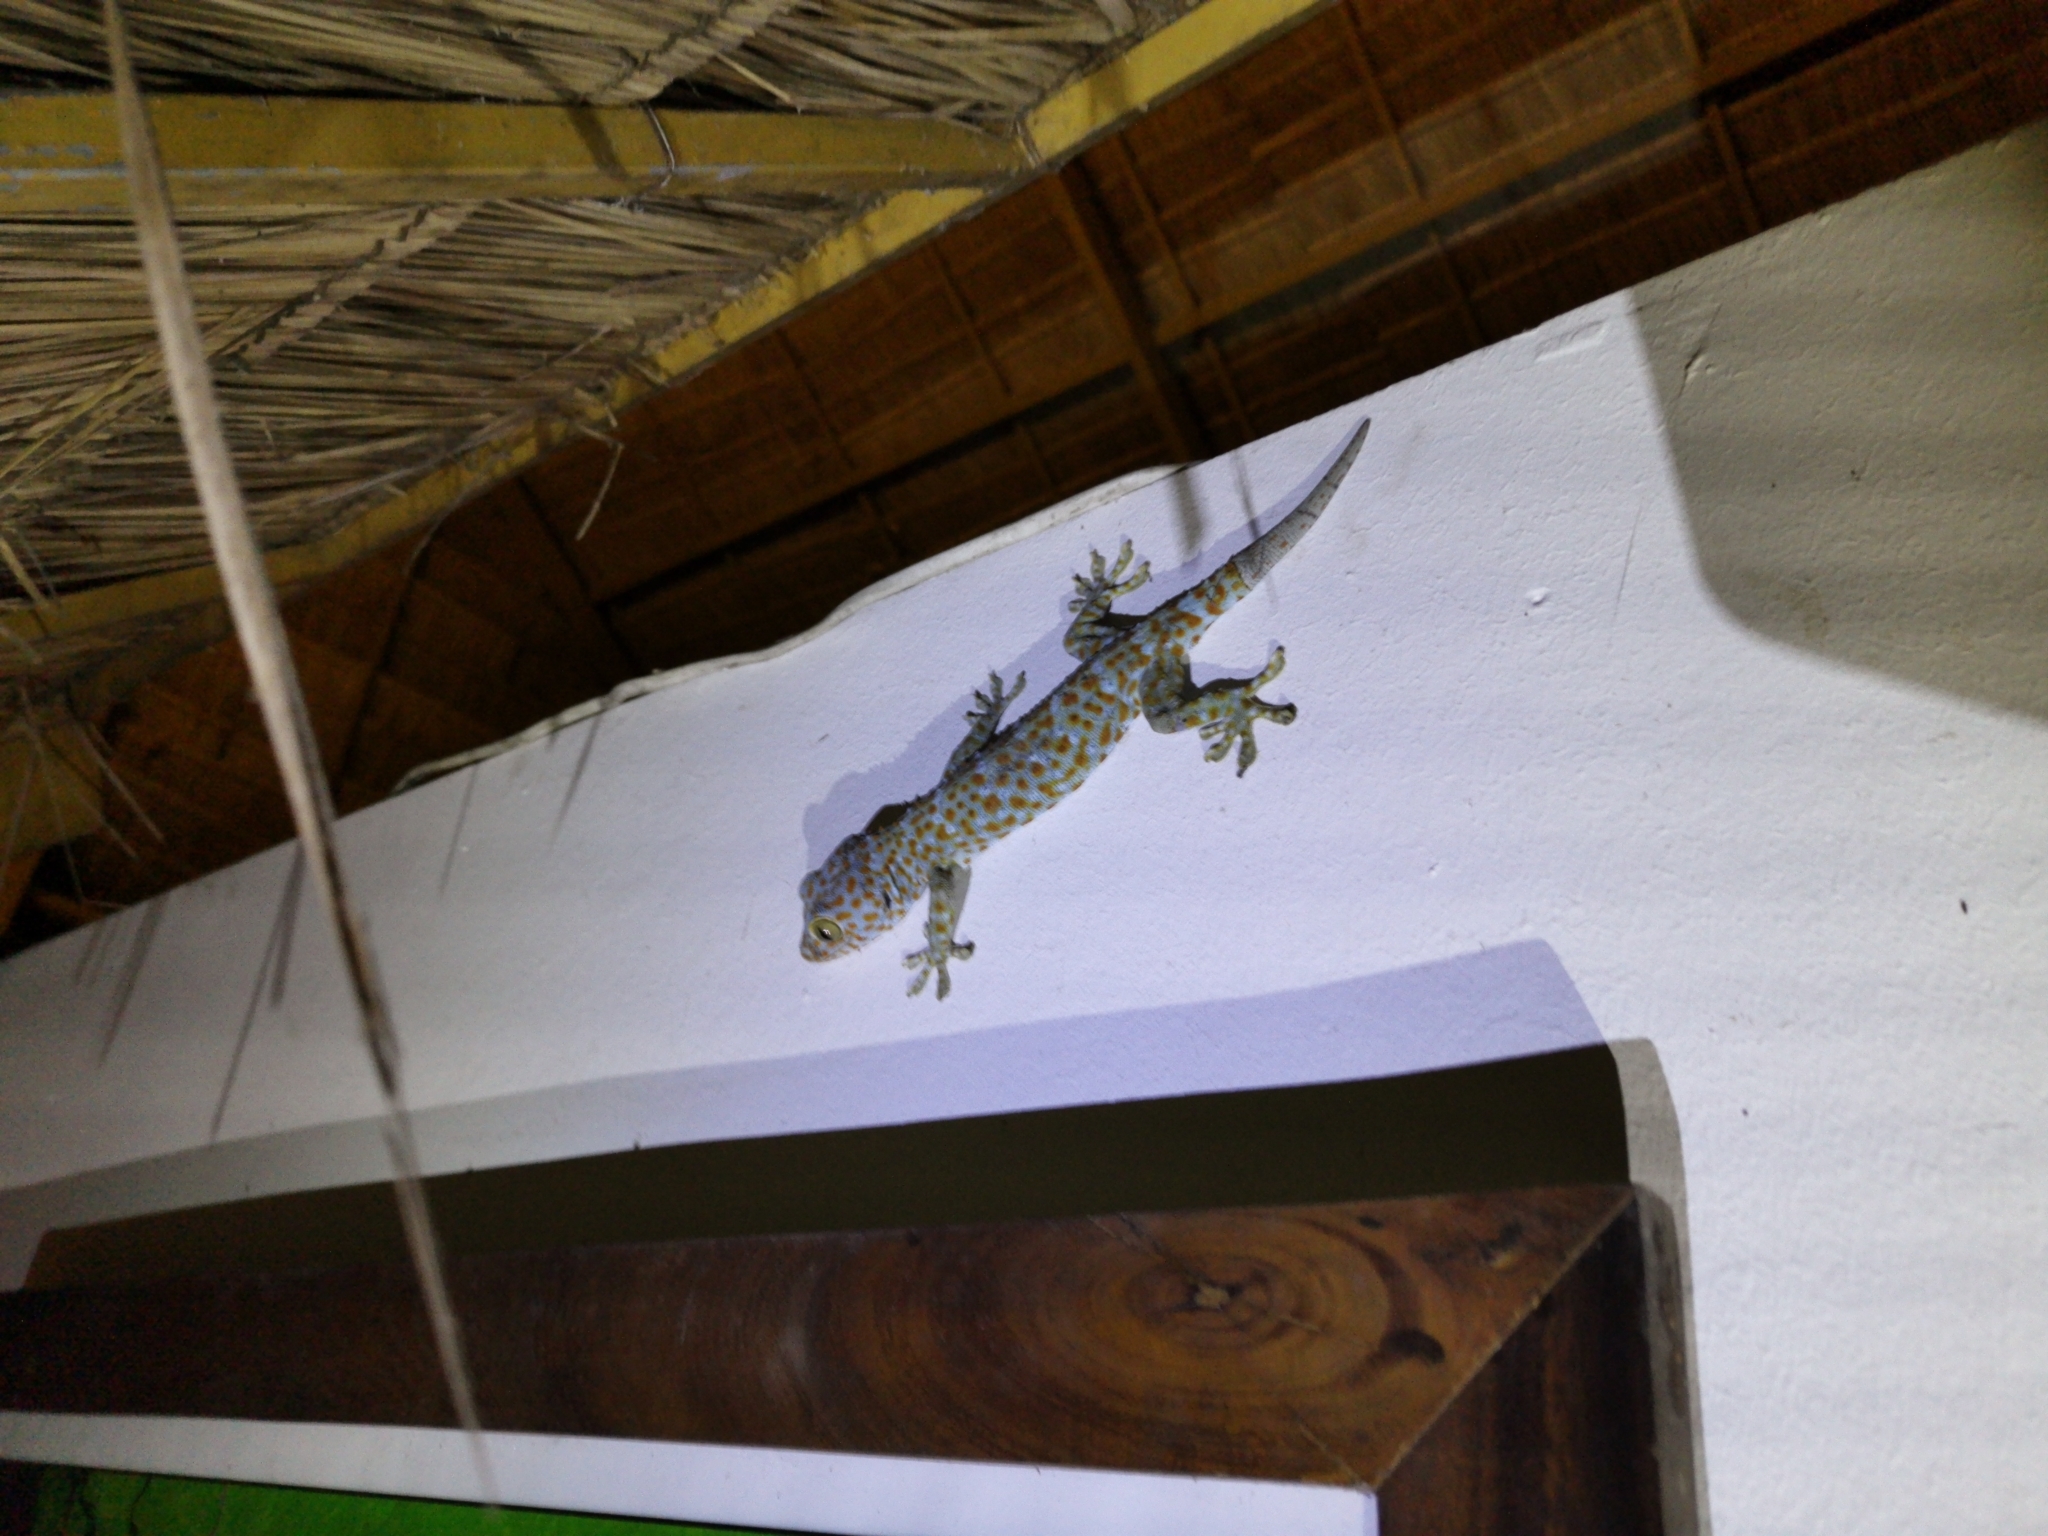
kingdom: Animalia
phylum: Chordata
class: Squamata
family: Gekkonidae
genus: Gekko
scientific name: Gekko gecko
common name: Tokay gecko
